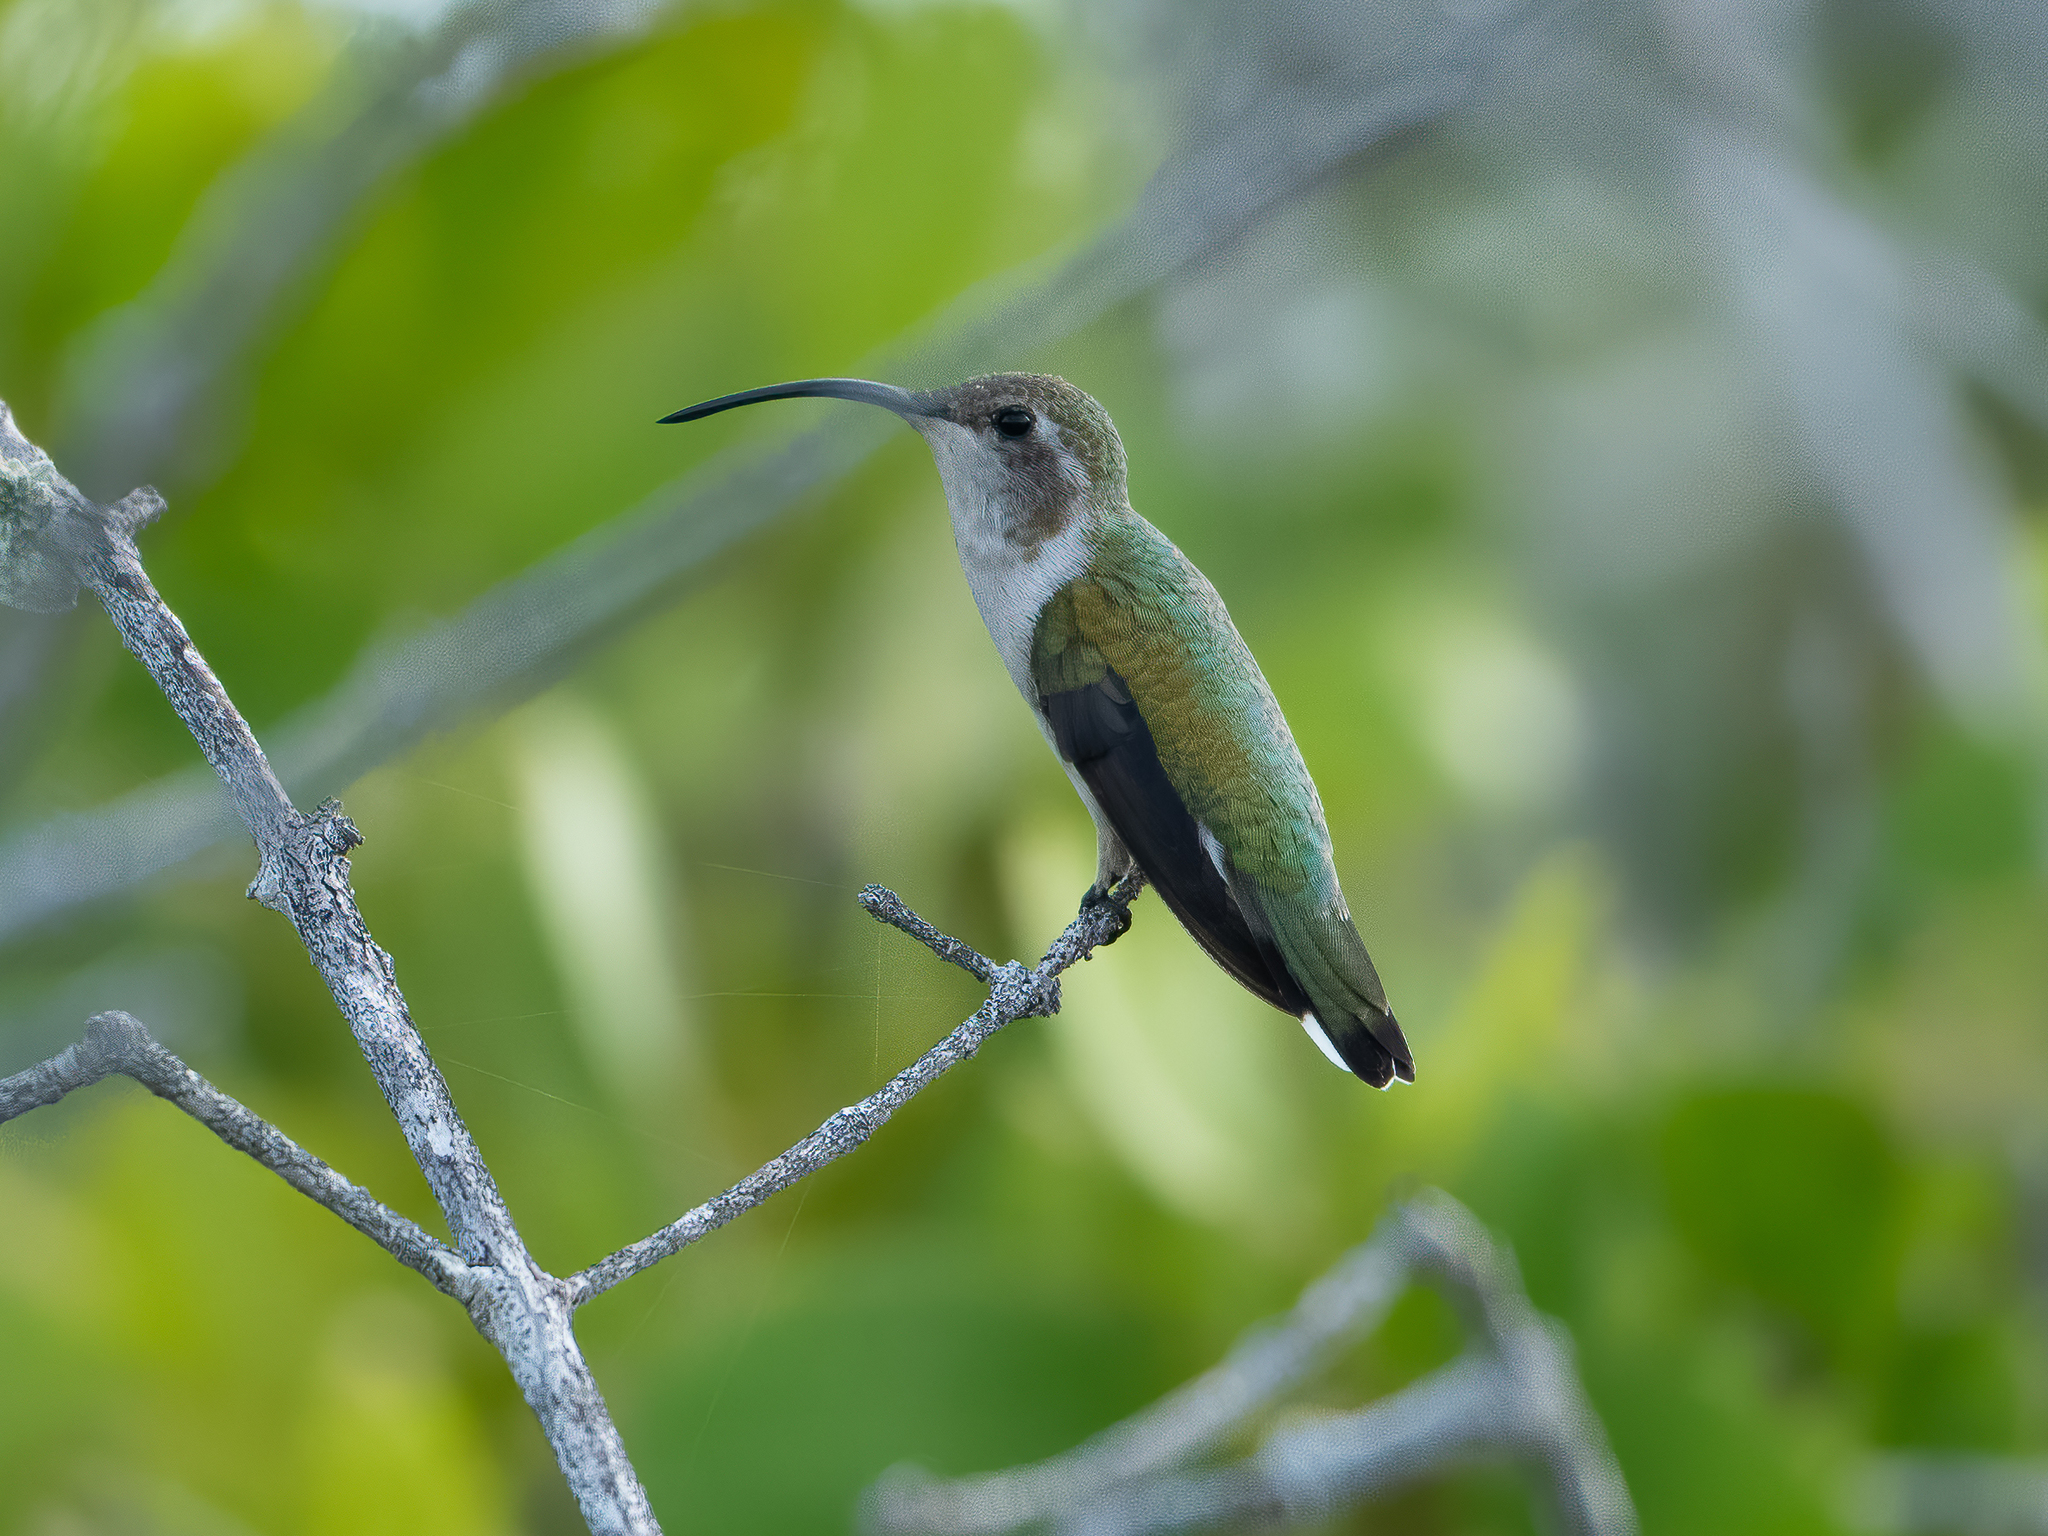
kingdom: Animalia
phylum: Chordata
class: Aves
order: Apodiformes
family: Trochilidae
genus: Doricha
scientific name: Doricha eliza
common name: Mexican sheartail
